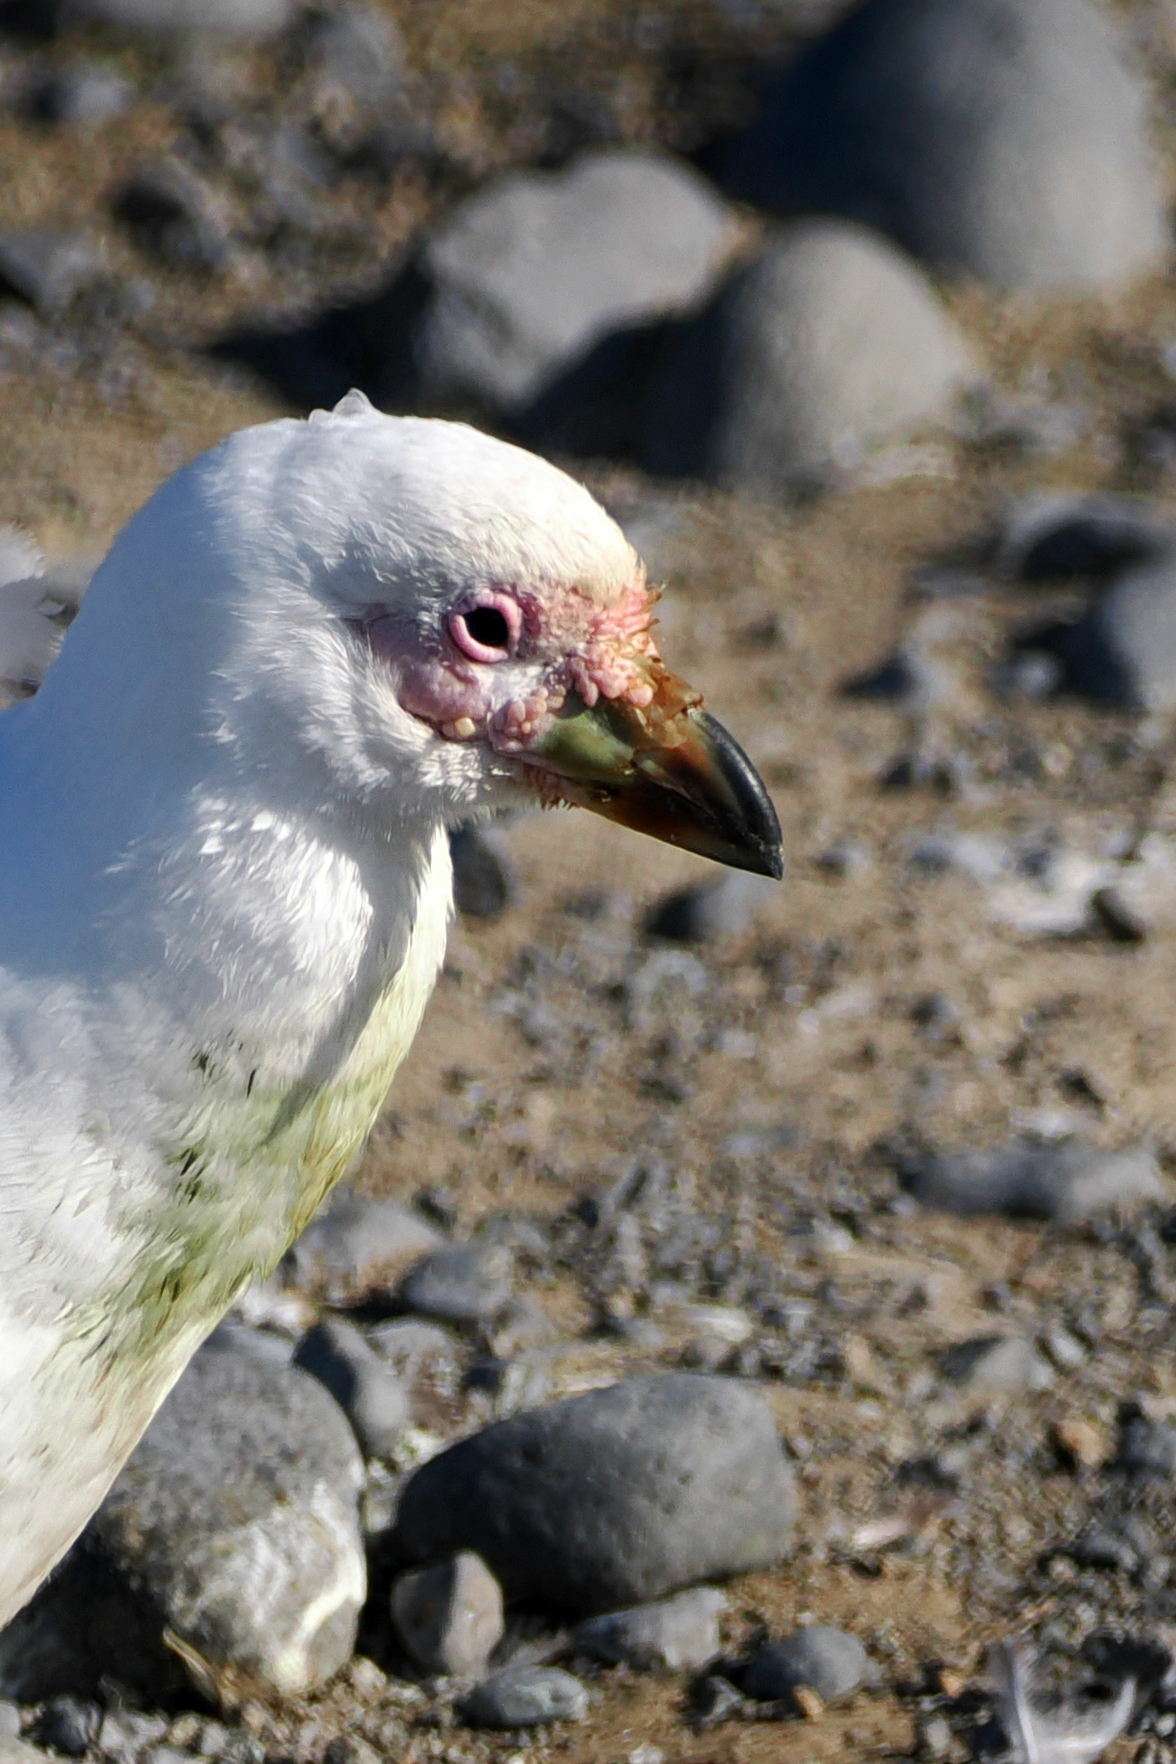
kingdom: Animalia
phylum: Chordata
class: Aves
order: Charadriiformes
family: Chionidae
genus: Chionis
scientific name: Chionis albus
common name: Snowy sheathbill
